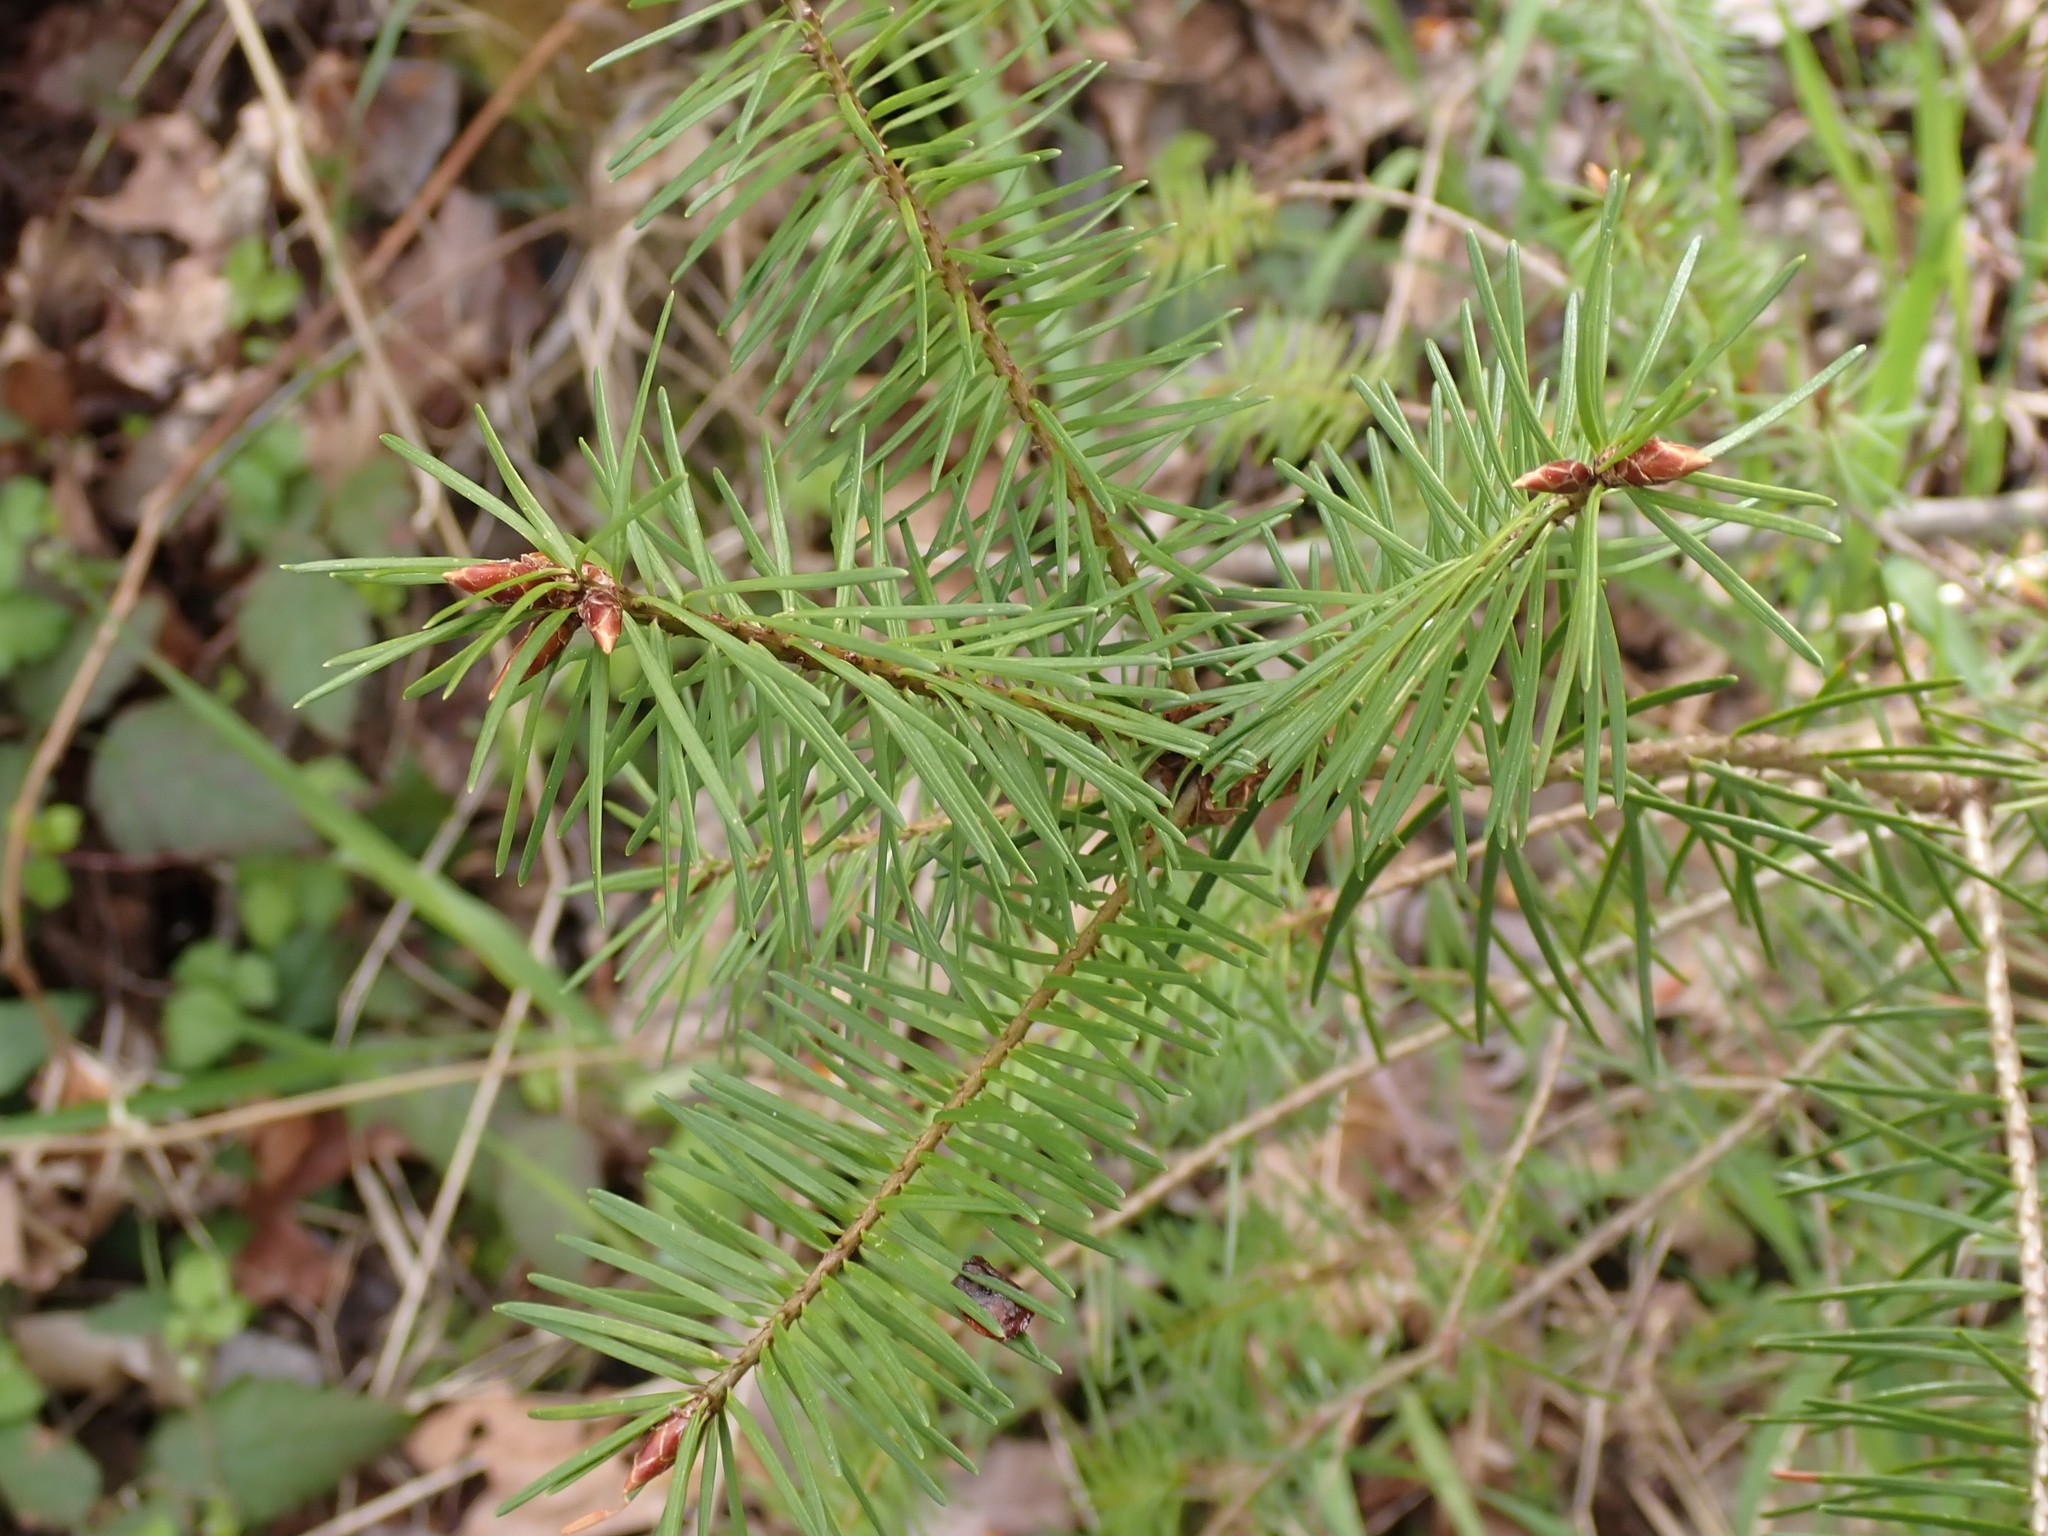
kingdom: Plantae
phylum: Tracheophyta
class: Pinopsida
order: Pinales
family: Pinaceae
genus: Pseudotsuga
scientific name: Pseudotsuga menziesii
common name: Douglas fir
